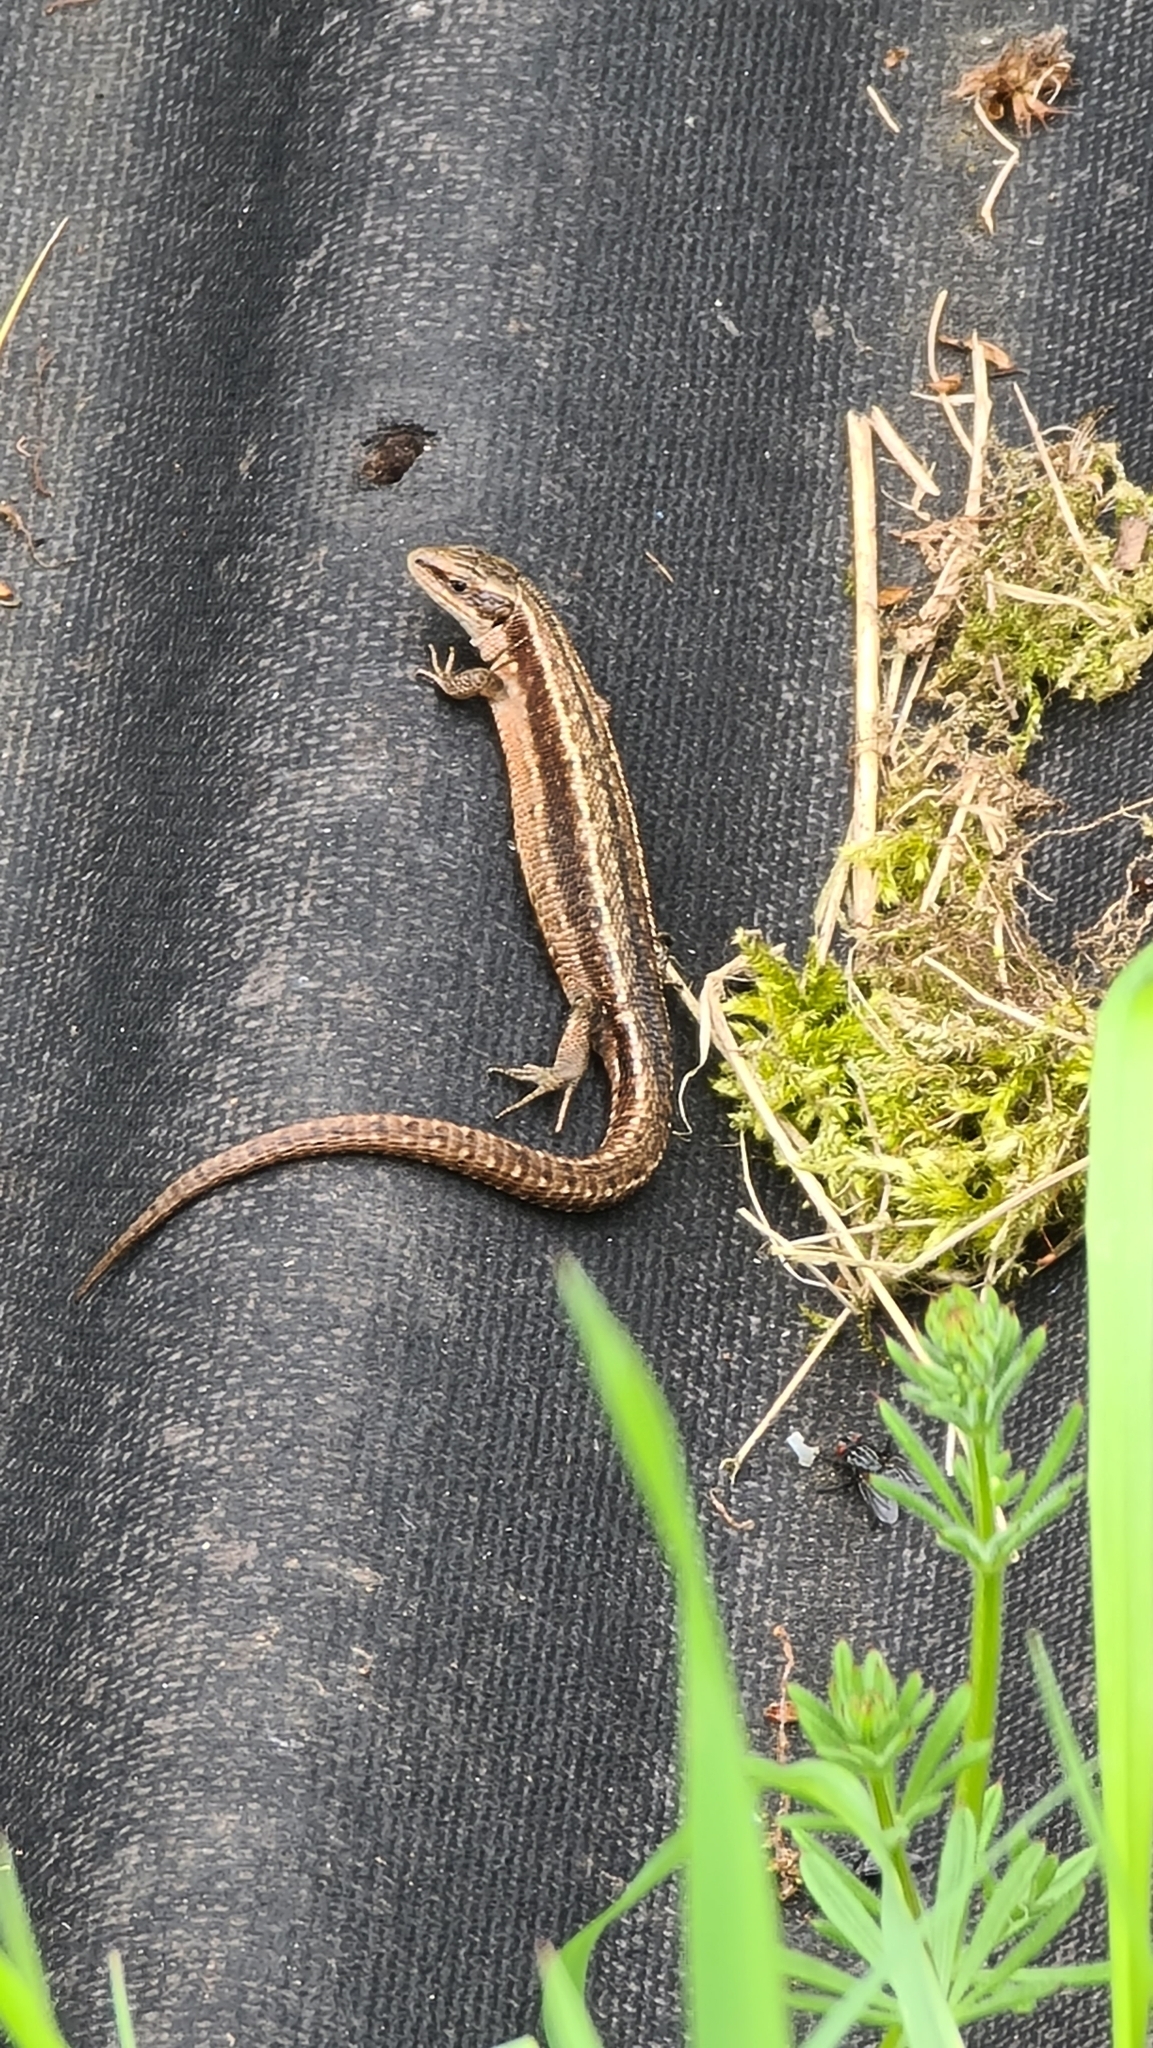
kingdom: Animalia
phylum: Chordata
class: Squamata
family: Lacertidae
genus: Zootoca
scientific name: Zootoca vivipara
